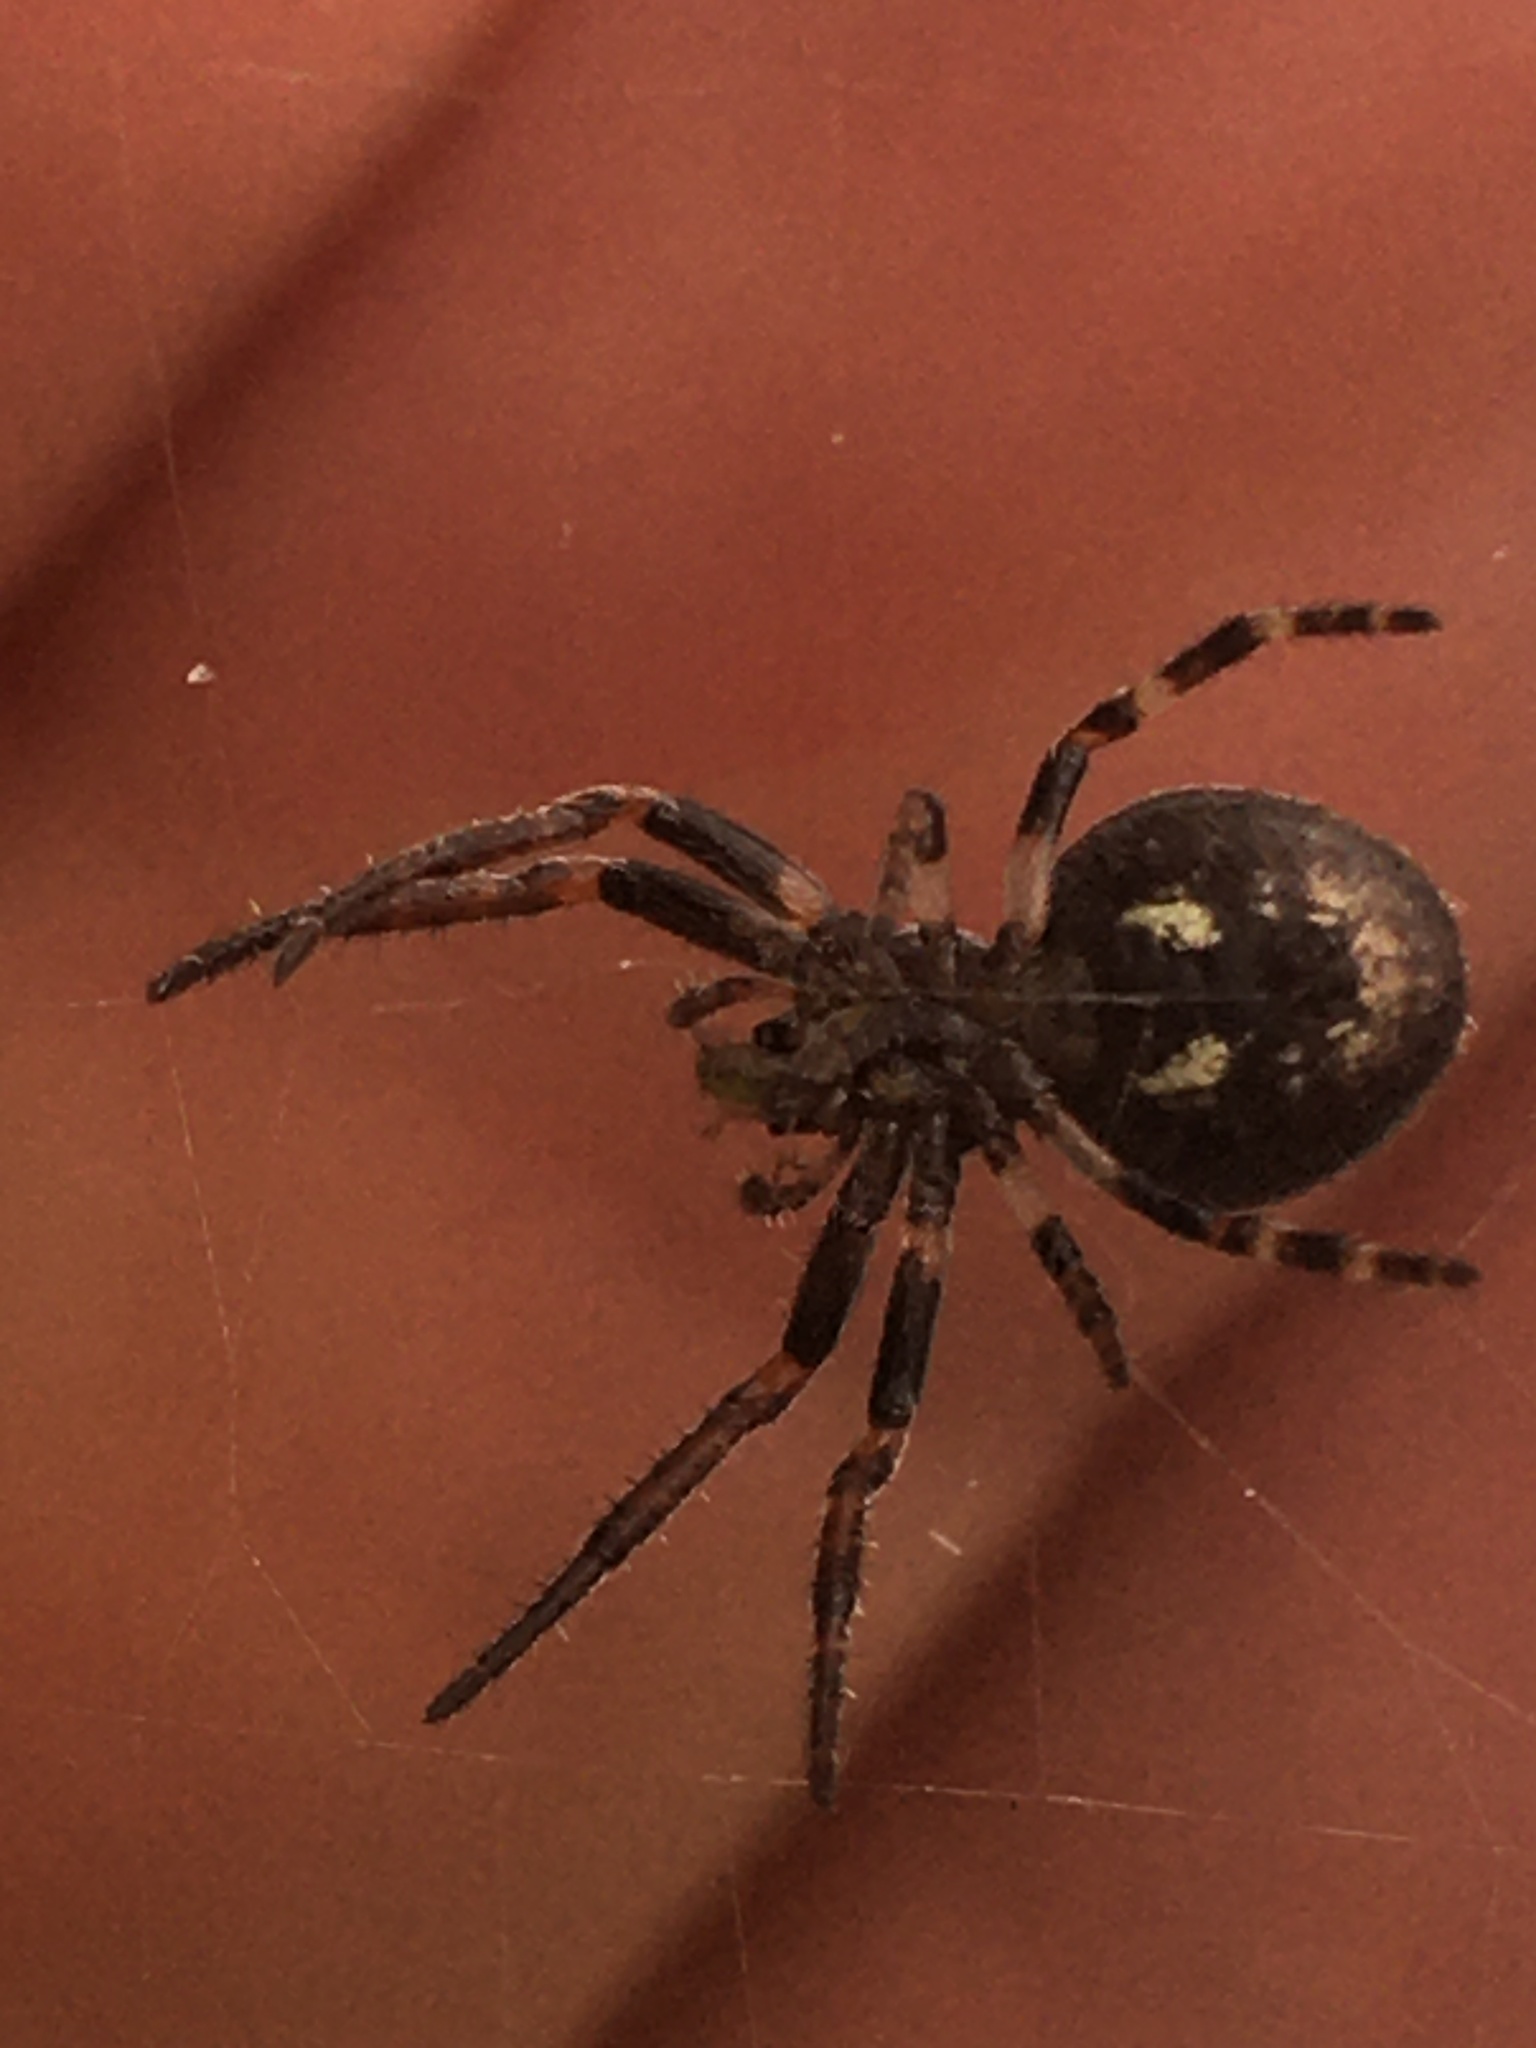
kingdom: Animalia
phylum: Arthropoda
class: Arachnida
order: Araneae
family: Araneidae
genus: Nuctenea
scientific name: Nuctenea umbratica
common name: Toad spider
